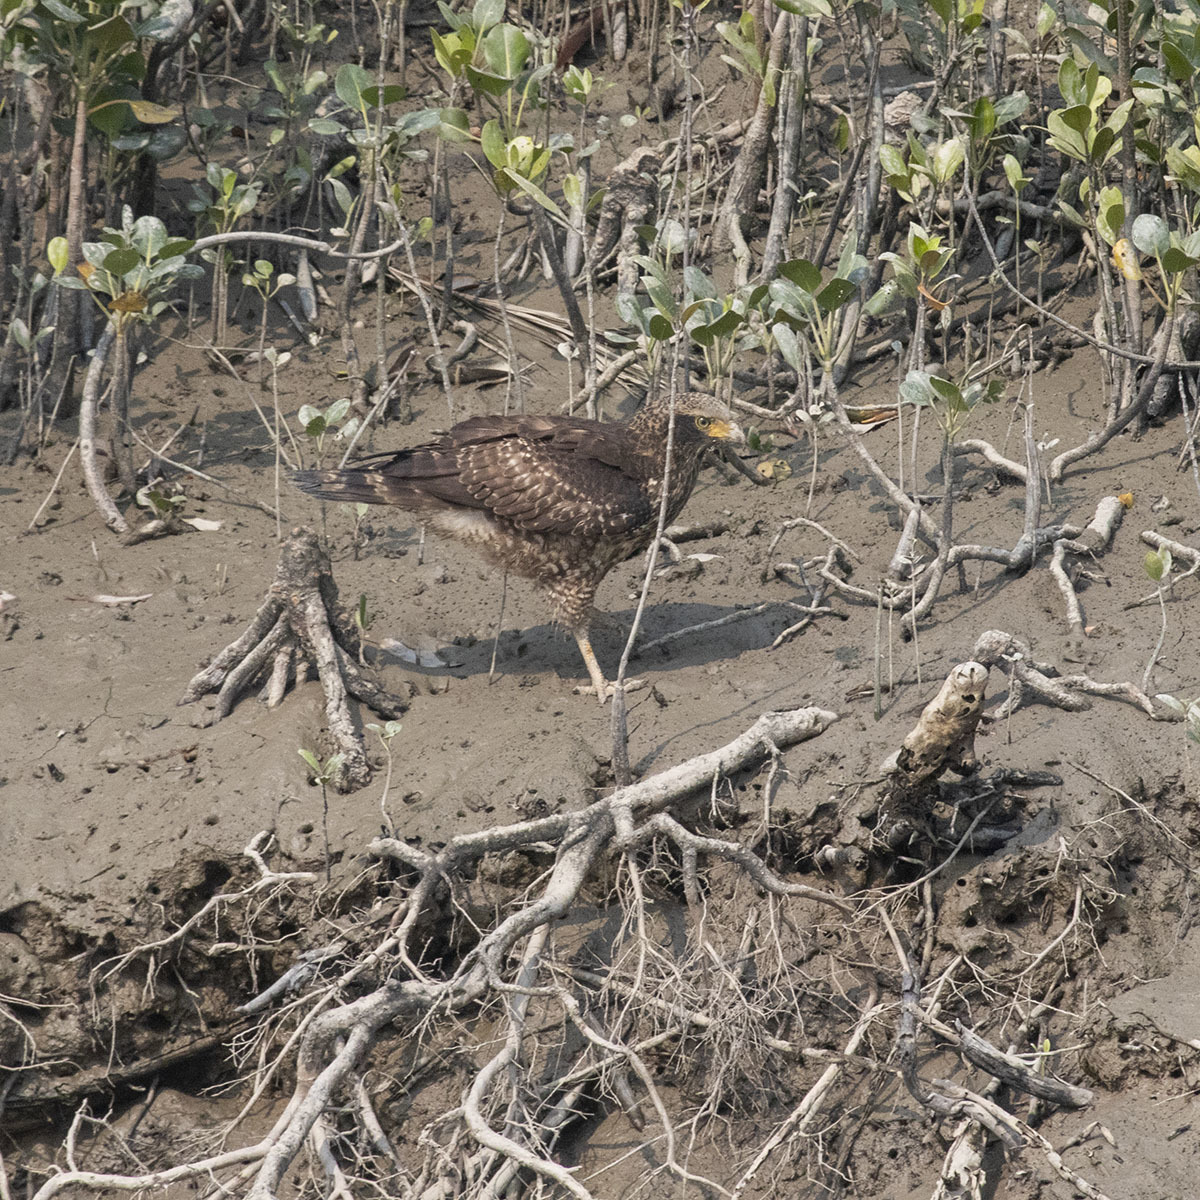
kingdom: Animalia
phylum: Chordata
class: Aves
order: Accipitriformes
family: Accipitridae
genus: Spilornis
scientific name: Spilornis cheela
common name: Crested serpent eagle
